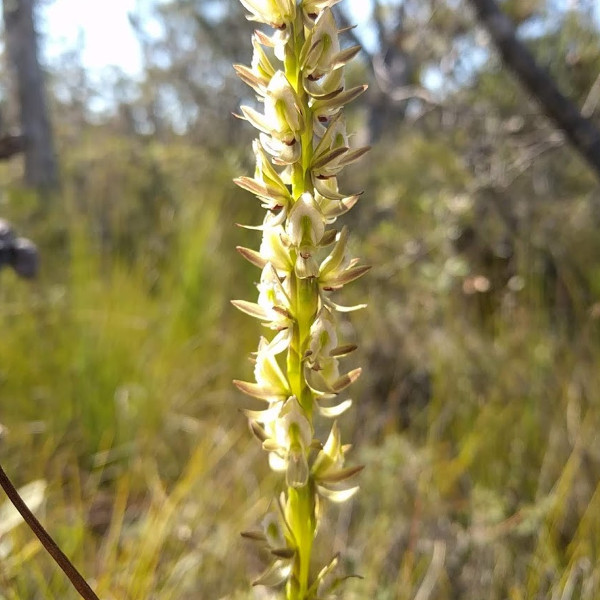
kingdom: Plantae
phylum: Tracheophyta
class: Liliopsida
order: Asparagales
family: Orchidaceae
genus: Prasophyllum
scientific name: Prasophyllum elatum
